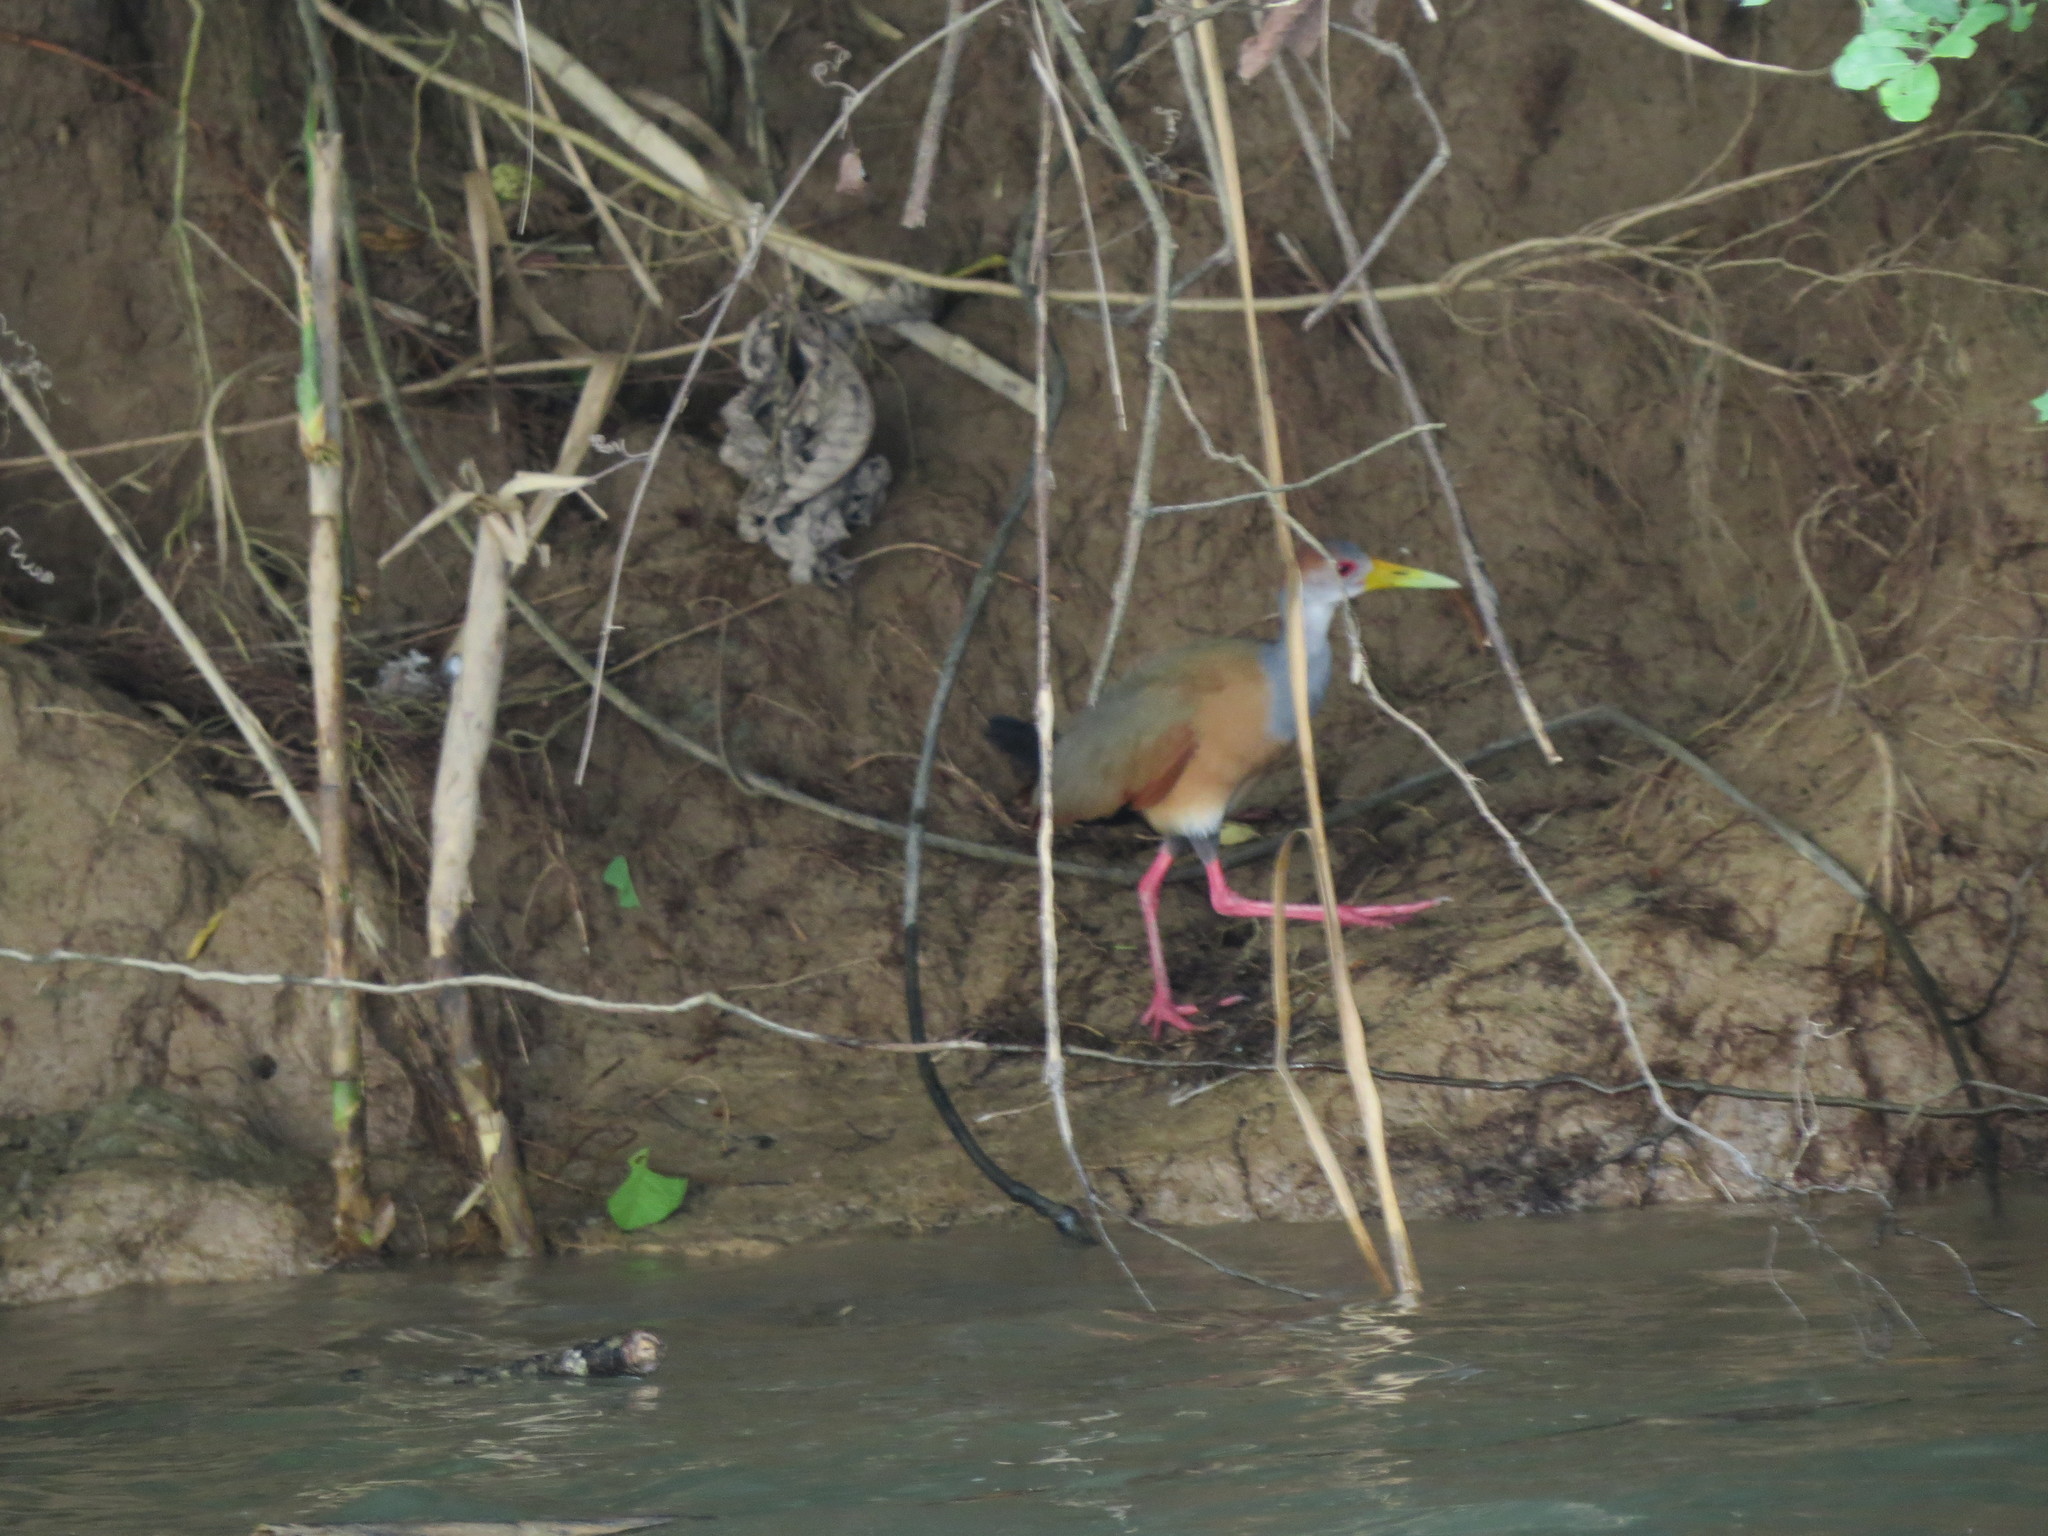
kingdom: Animalia
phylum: Chordata
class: Aves
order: Gruiformes
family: Rallidae
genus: Aramides
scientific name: Aramides albiventris
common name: Russet-naped wood-rail
